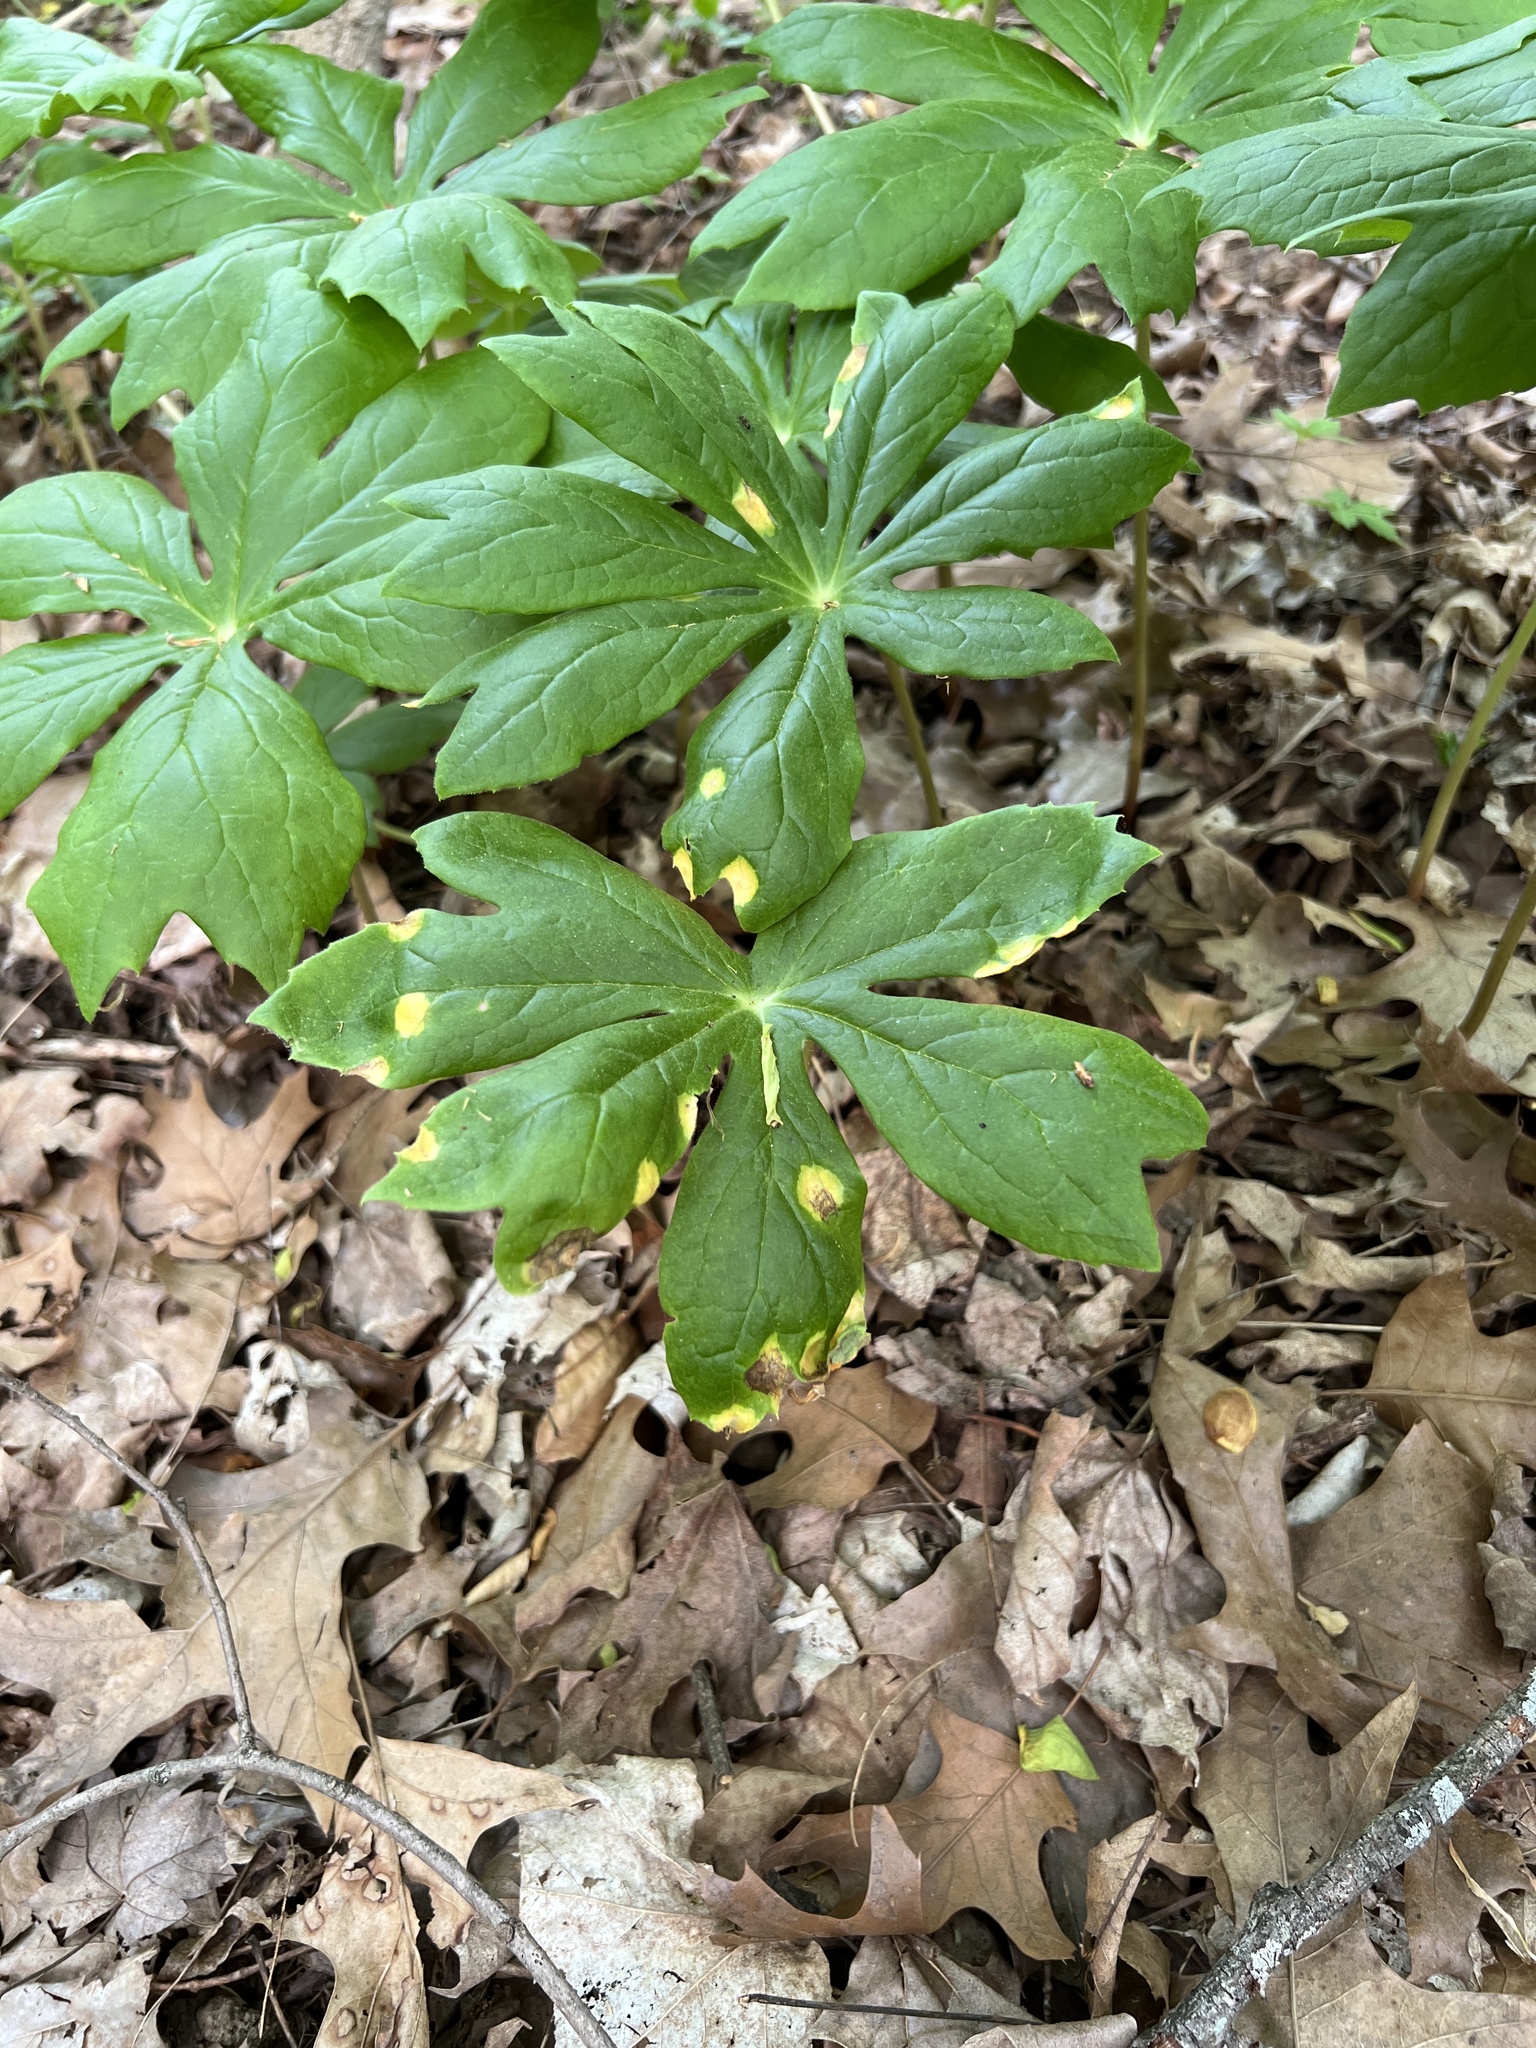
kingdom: Fungi
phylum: Basidiomycota
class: Pucciniomycetes
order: Pucciniales
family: Pucciniaceae
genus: Puccinia
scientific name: Puccinia podophylli
